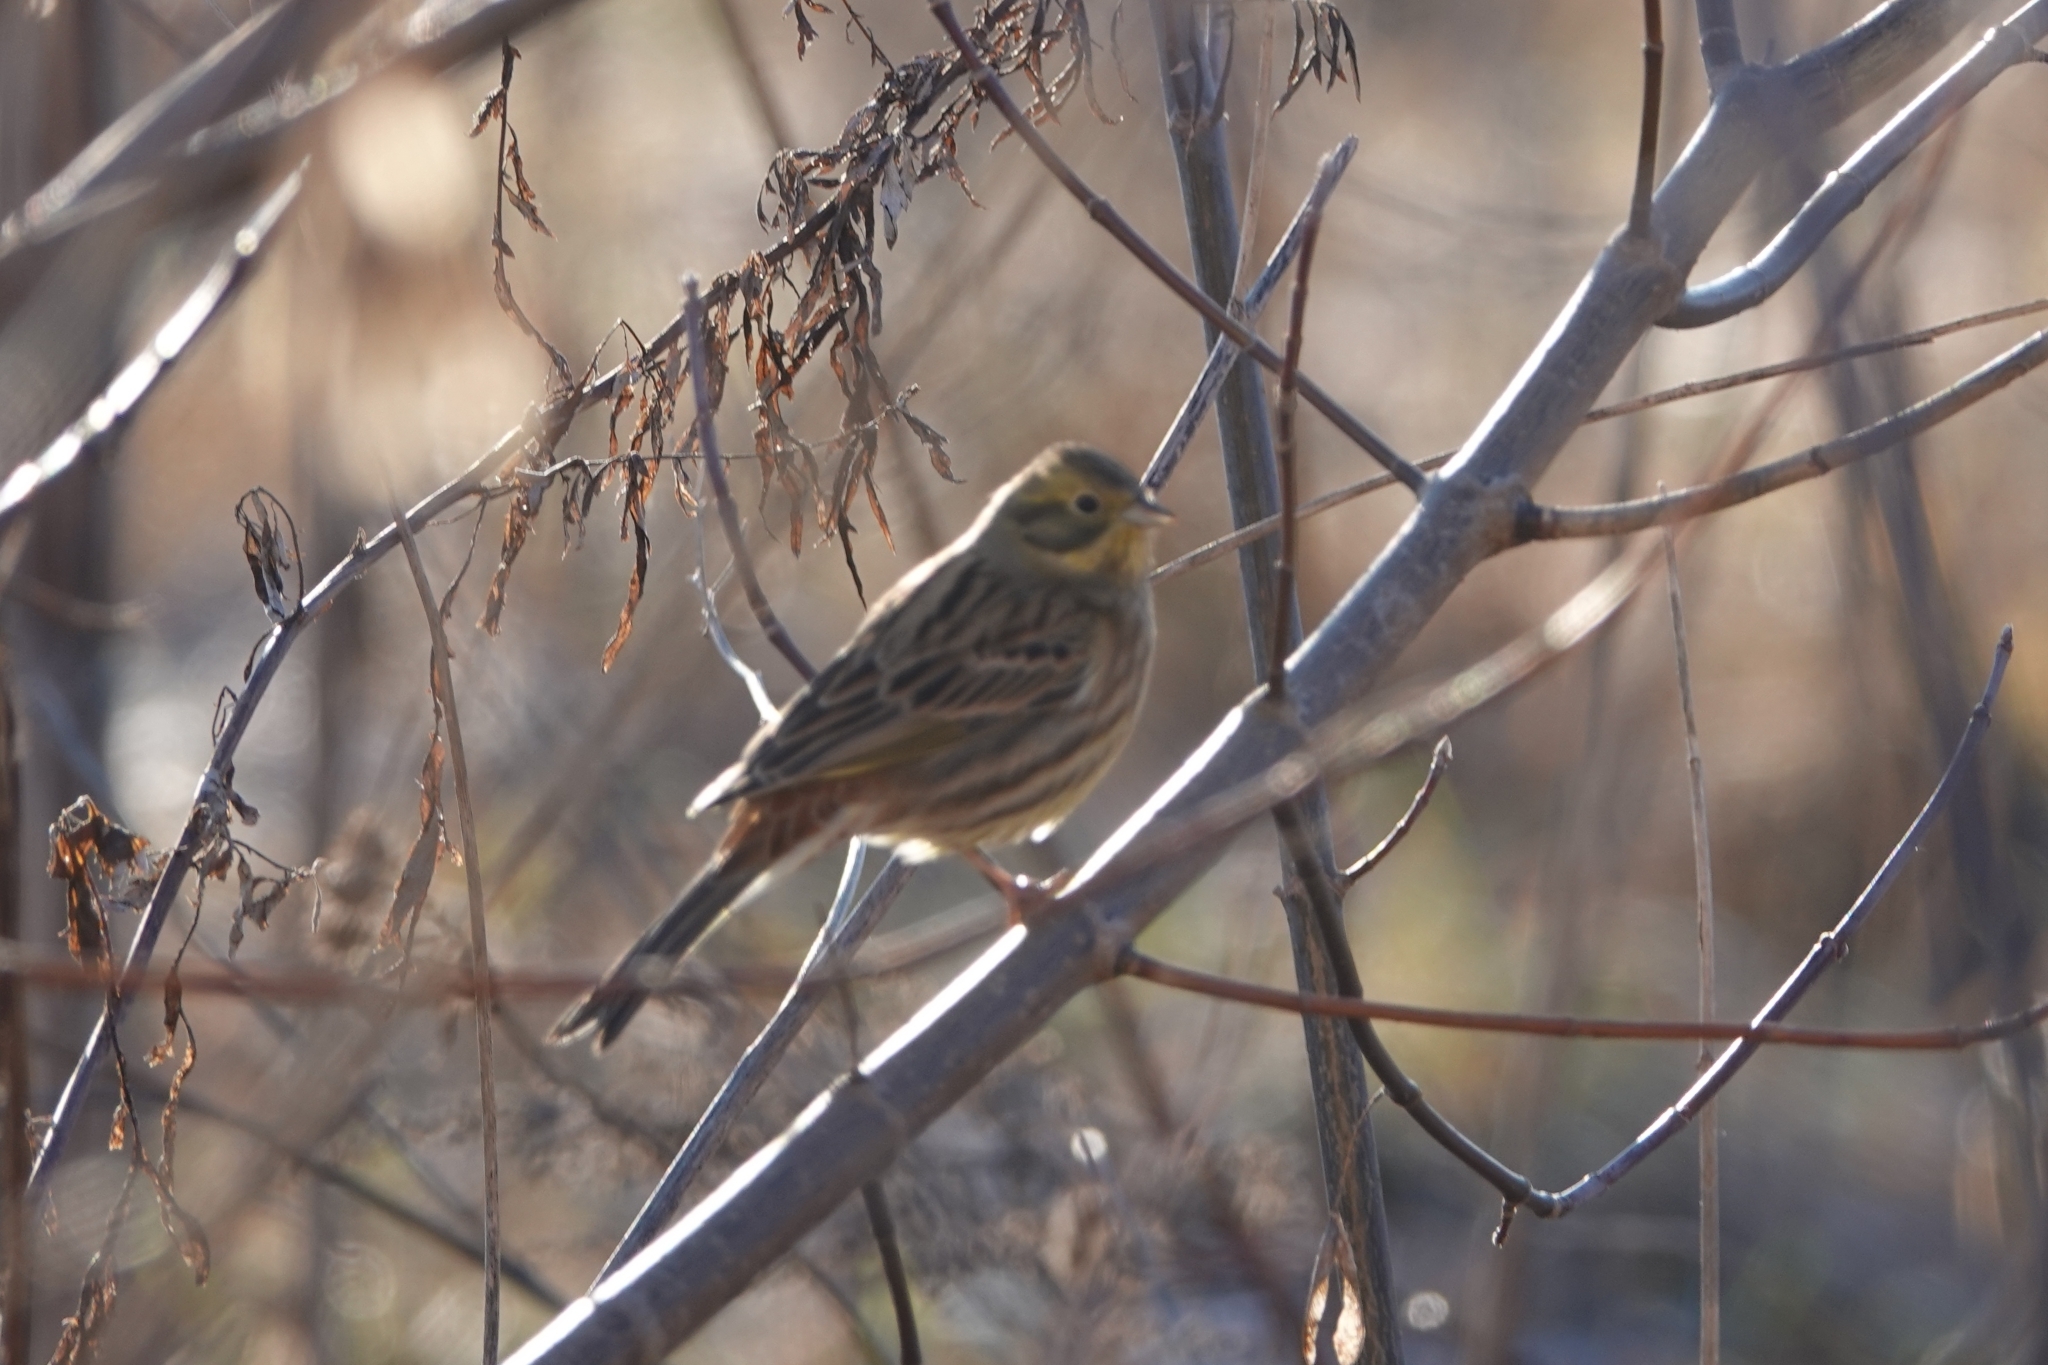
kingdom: Animalia
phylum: Chordata
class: Aves
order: Passeriformes
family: Emberizidae
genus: Emberiza
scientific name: Emberiza citrinella
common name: Yellowhammer
